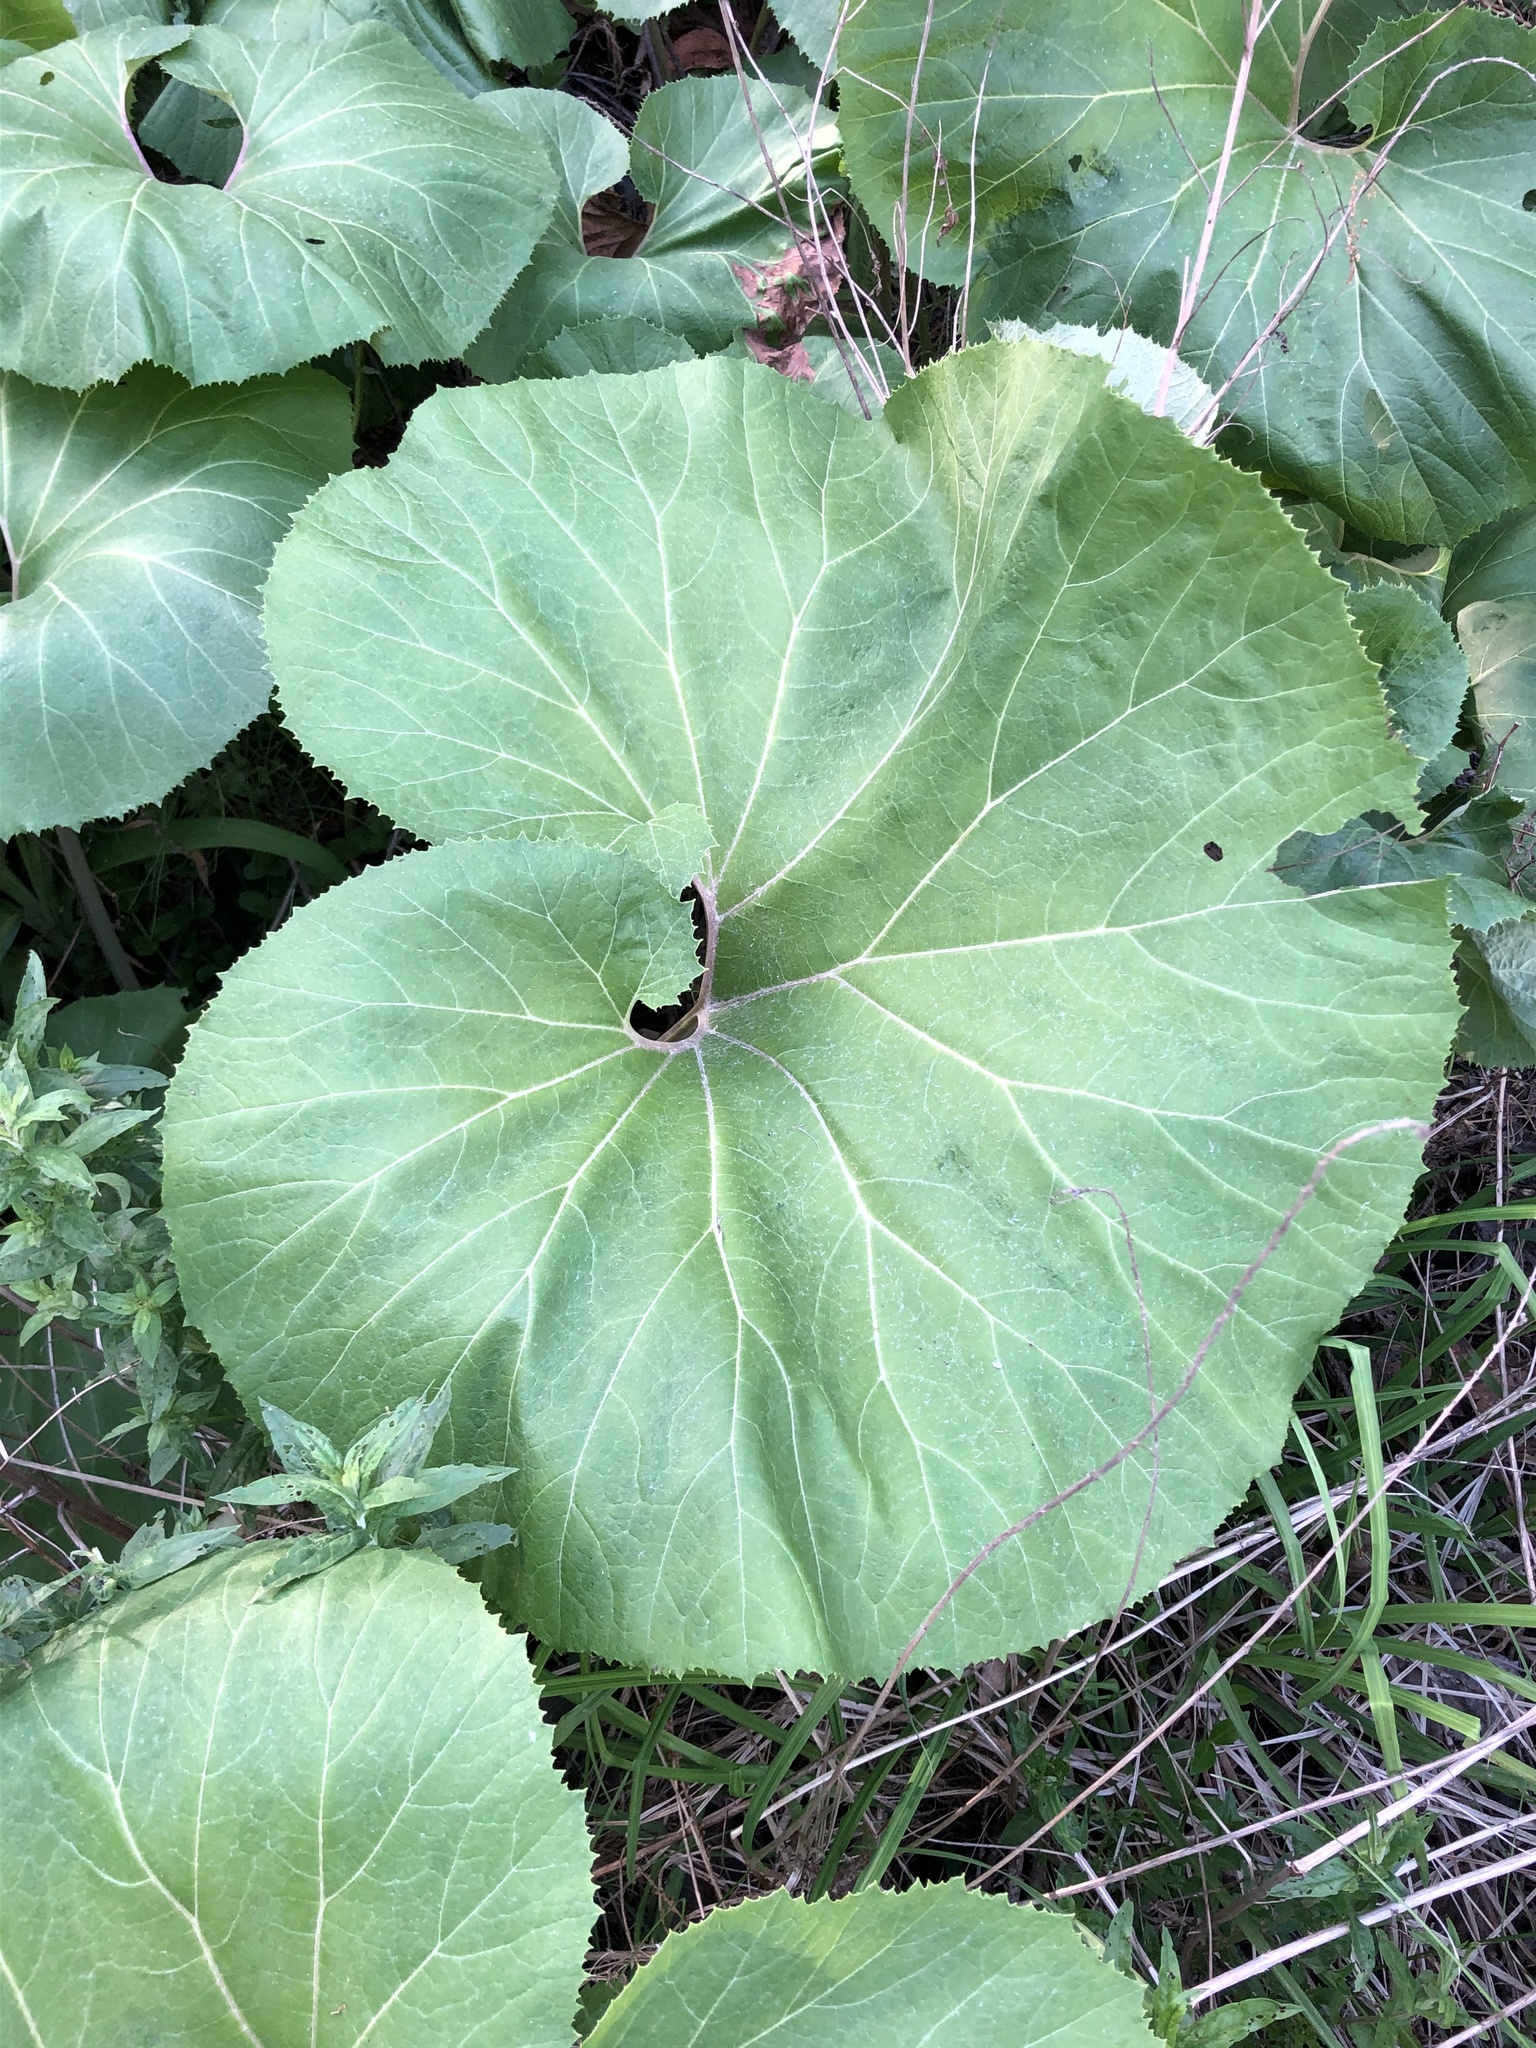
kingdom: Plantae
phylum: Tracheophyta
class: Magnoliopsida
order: Asterales
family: Asteraceae
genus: Petasites
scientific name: Petasites japonicus
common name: Giant butterbur
